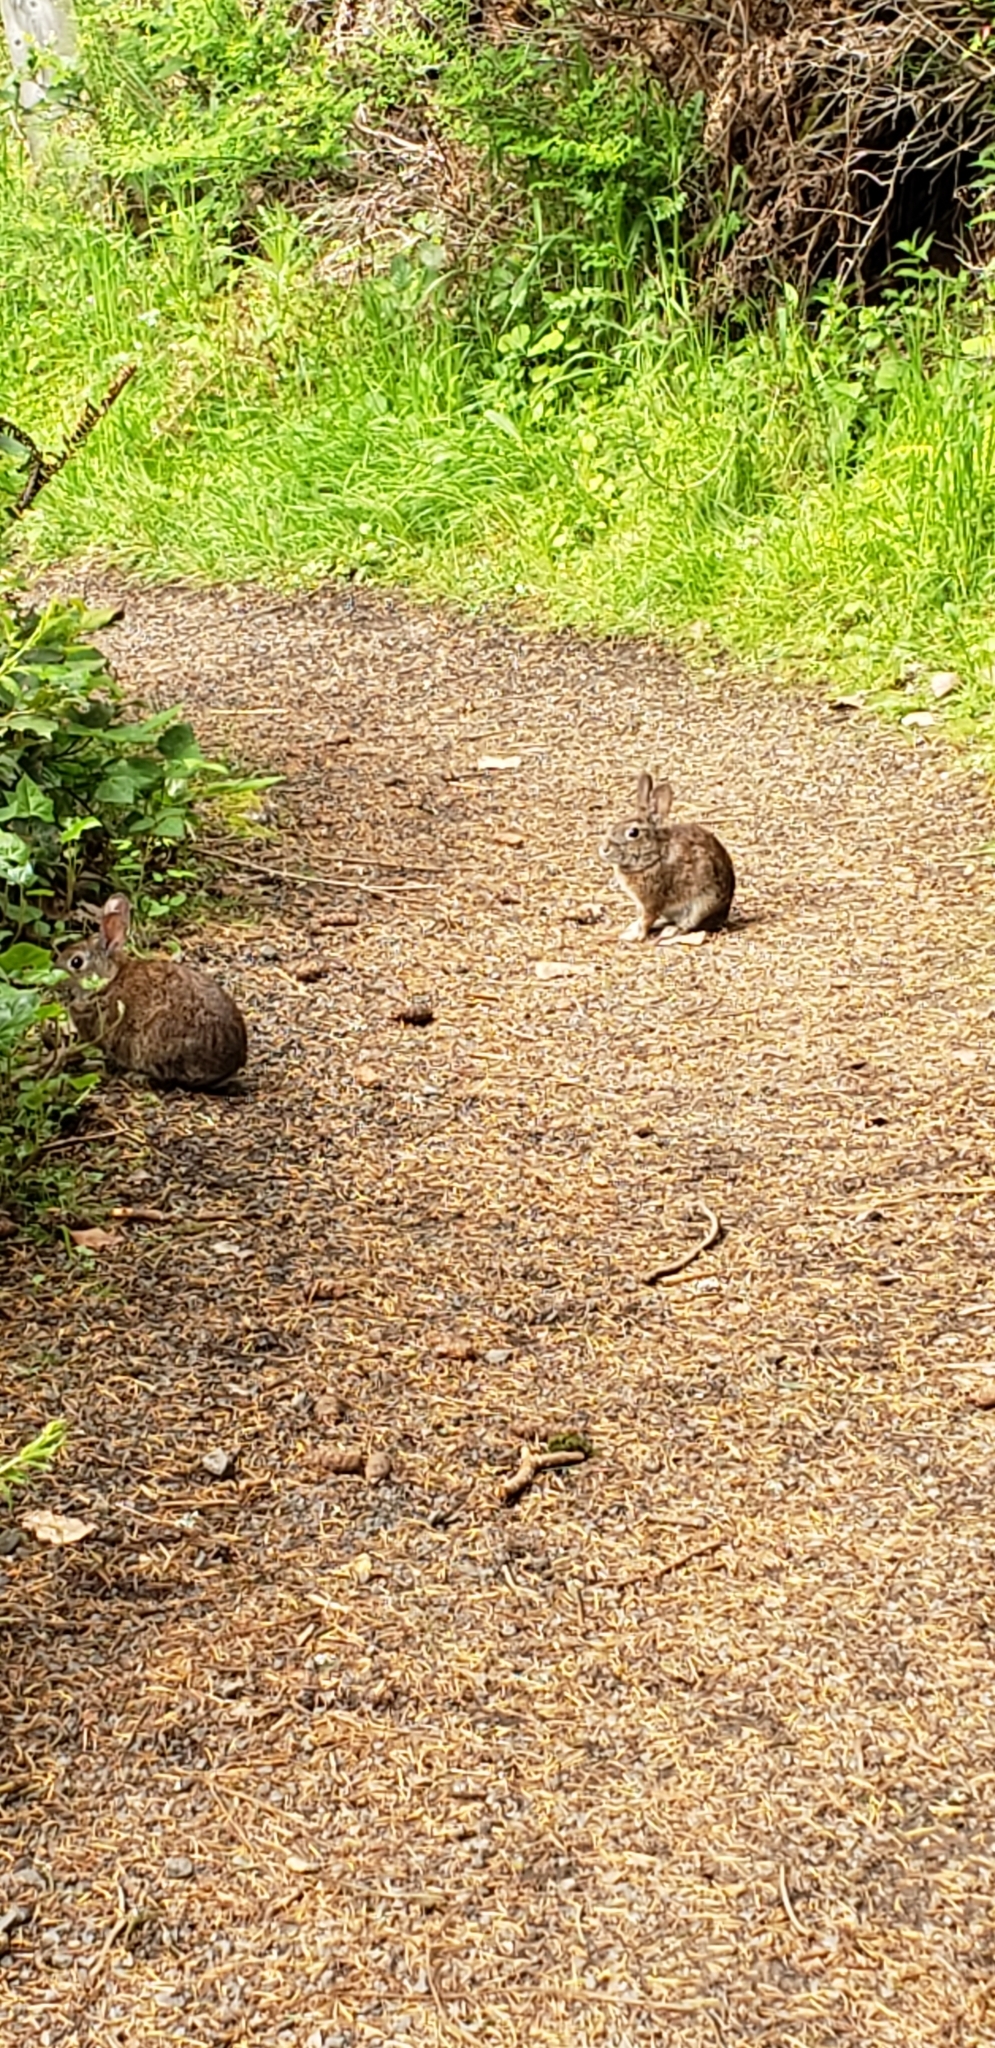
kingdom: Animalia
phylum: Chordata
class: Mammalia
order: Lagomorpha
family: Leporidae
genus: Sylvilagus
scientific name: Sylvilagus bachmani
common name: Brush rabbit
